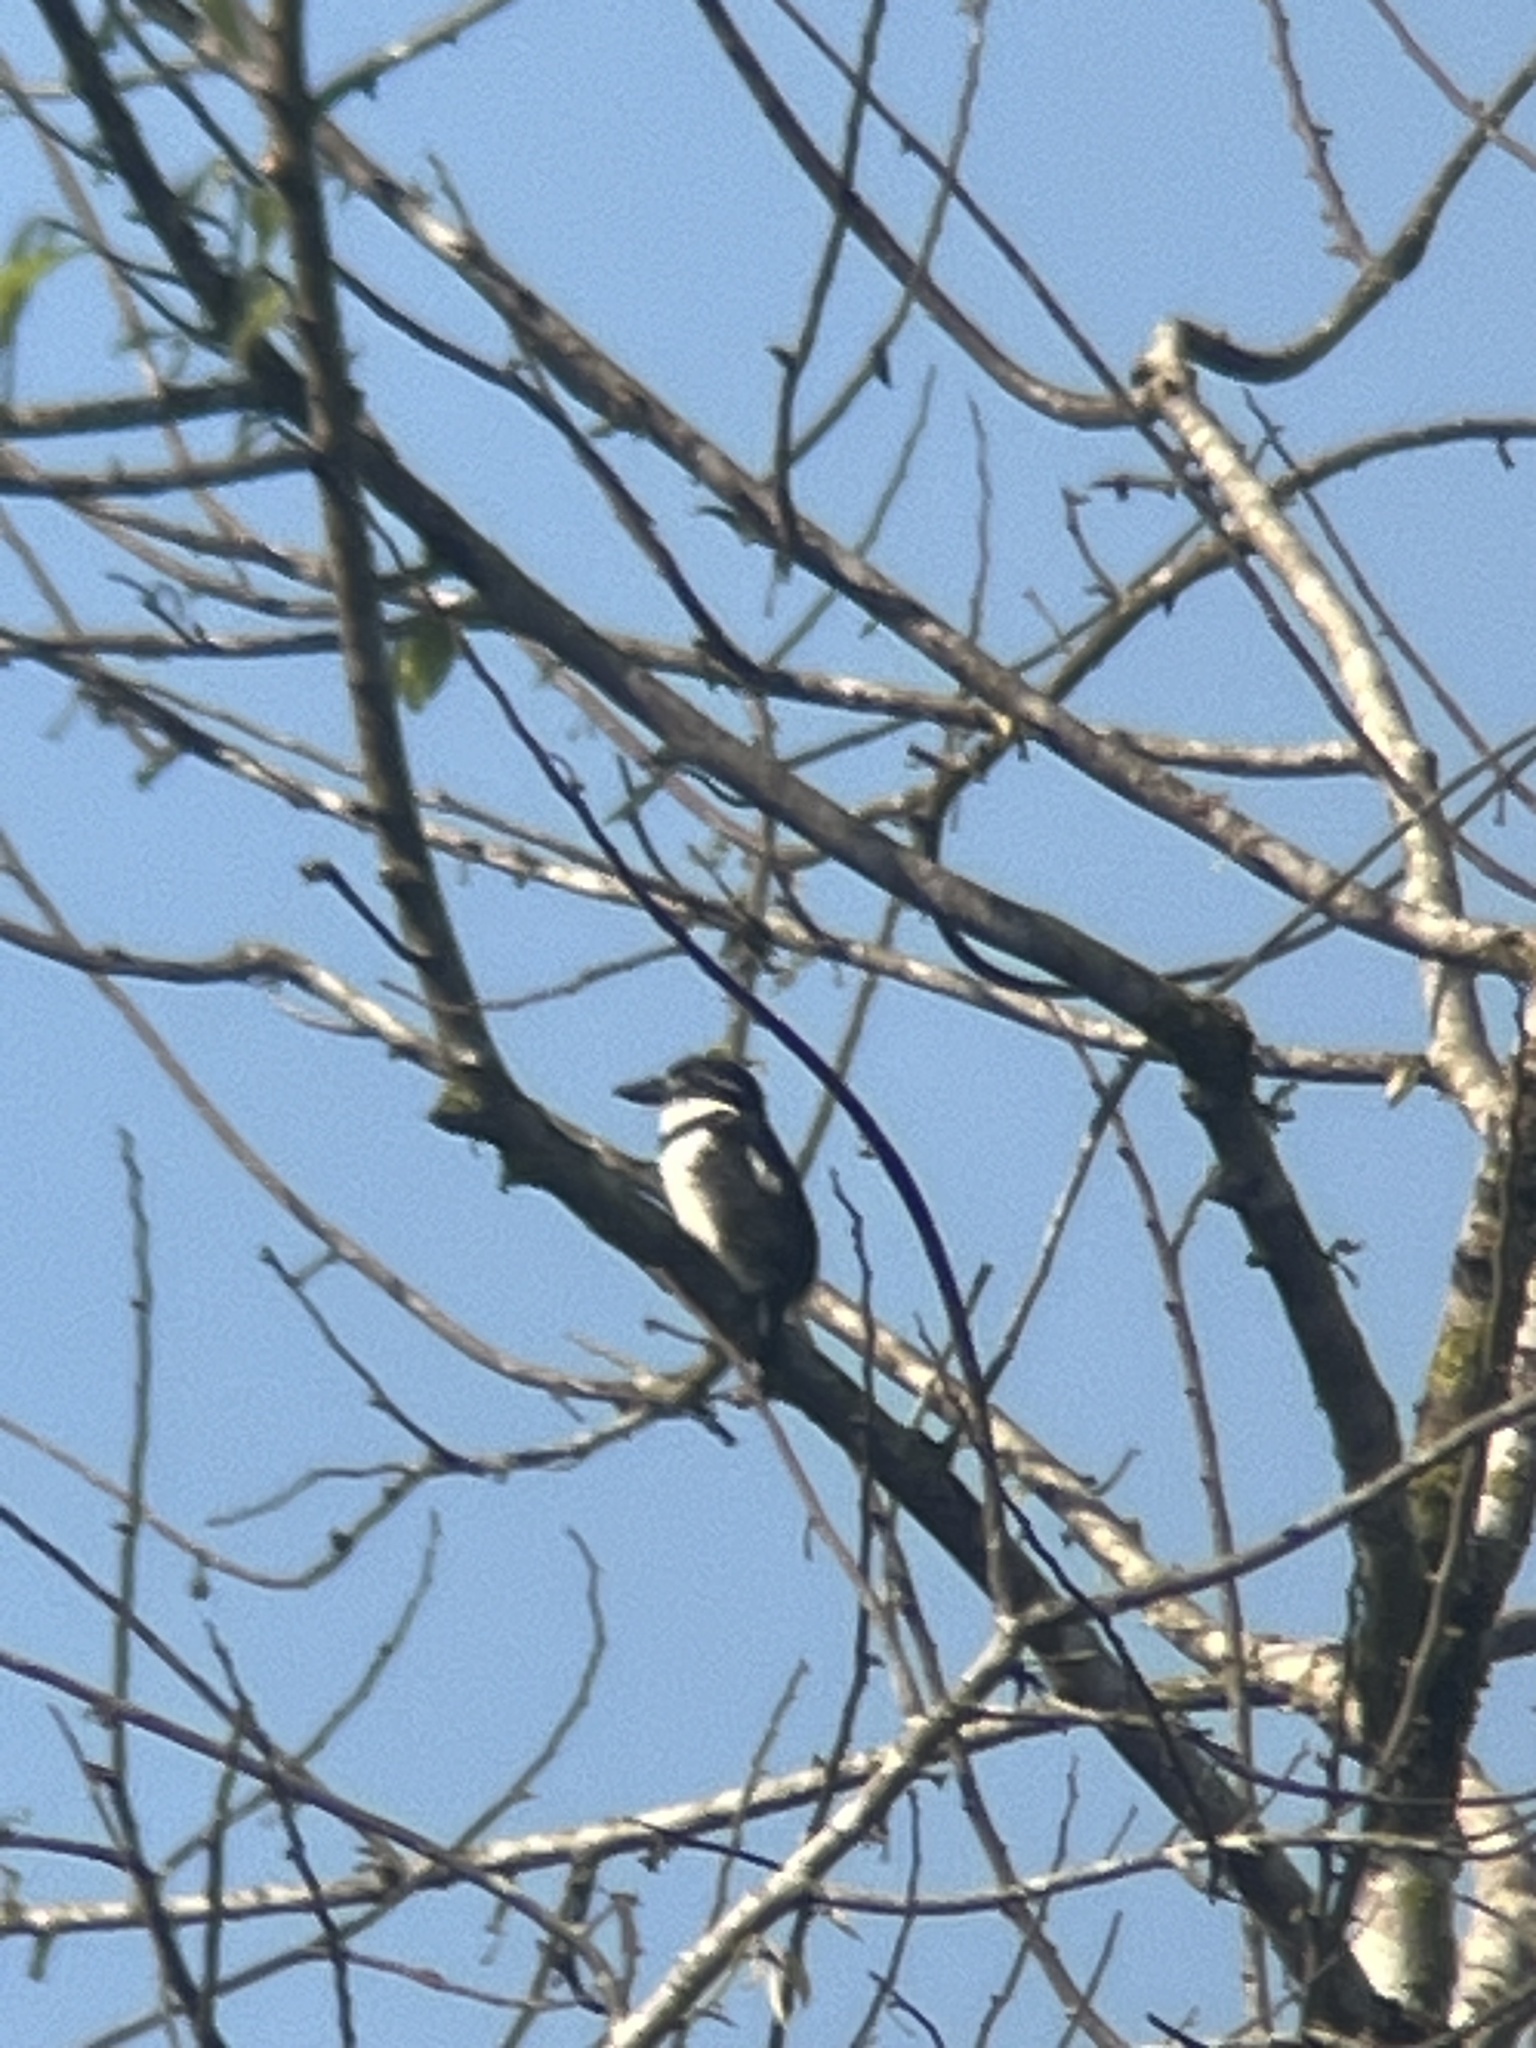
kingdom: Animalia
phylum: Chordata
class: Aves
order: Piciformes
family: Bucconidae
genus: Notharchus
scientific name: Notharchus tectus
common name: Pied puffbird
